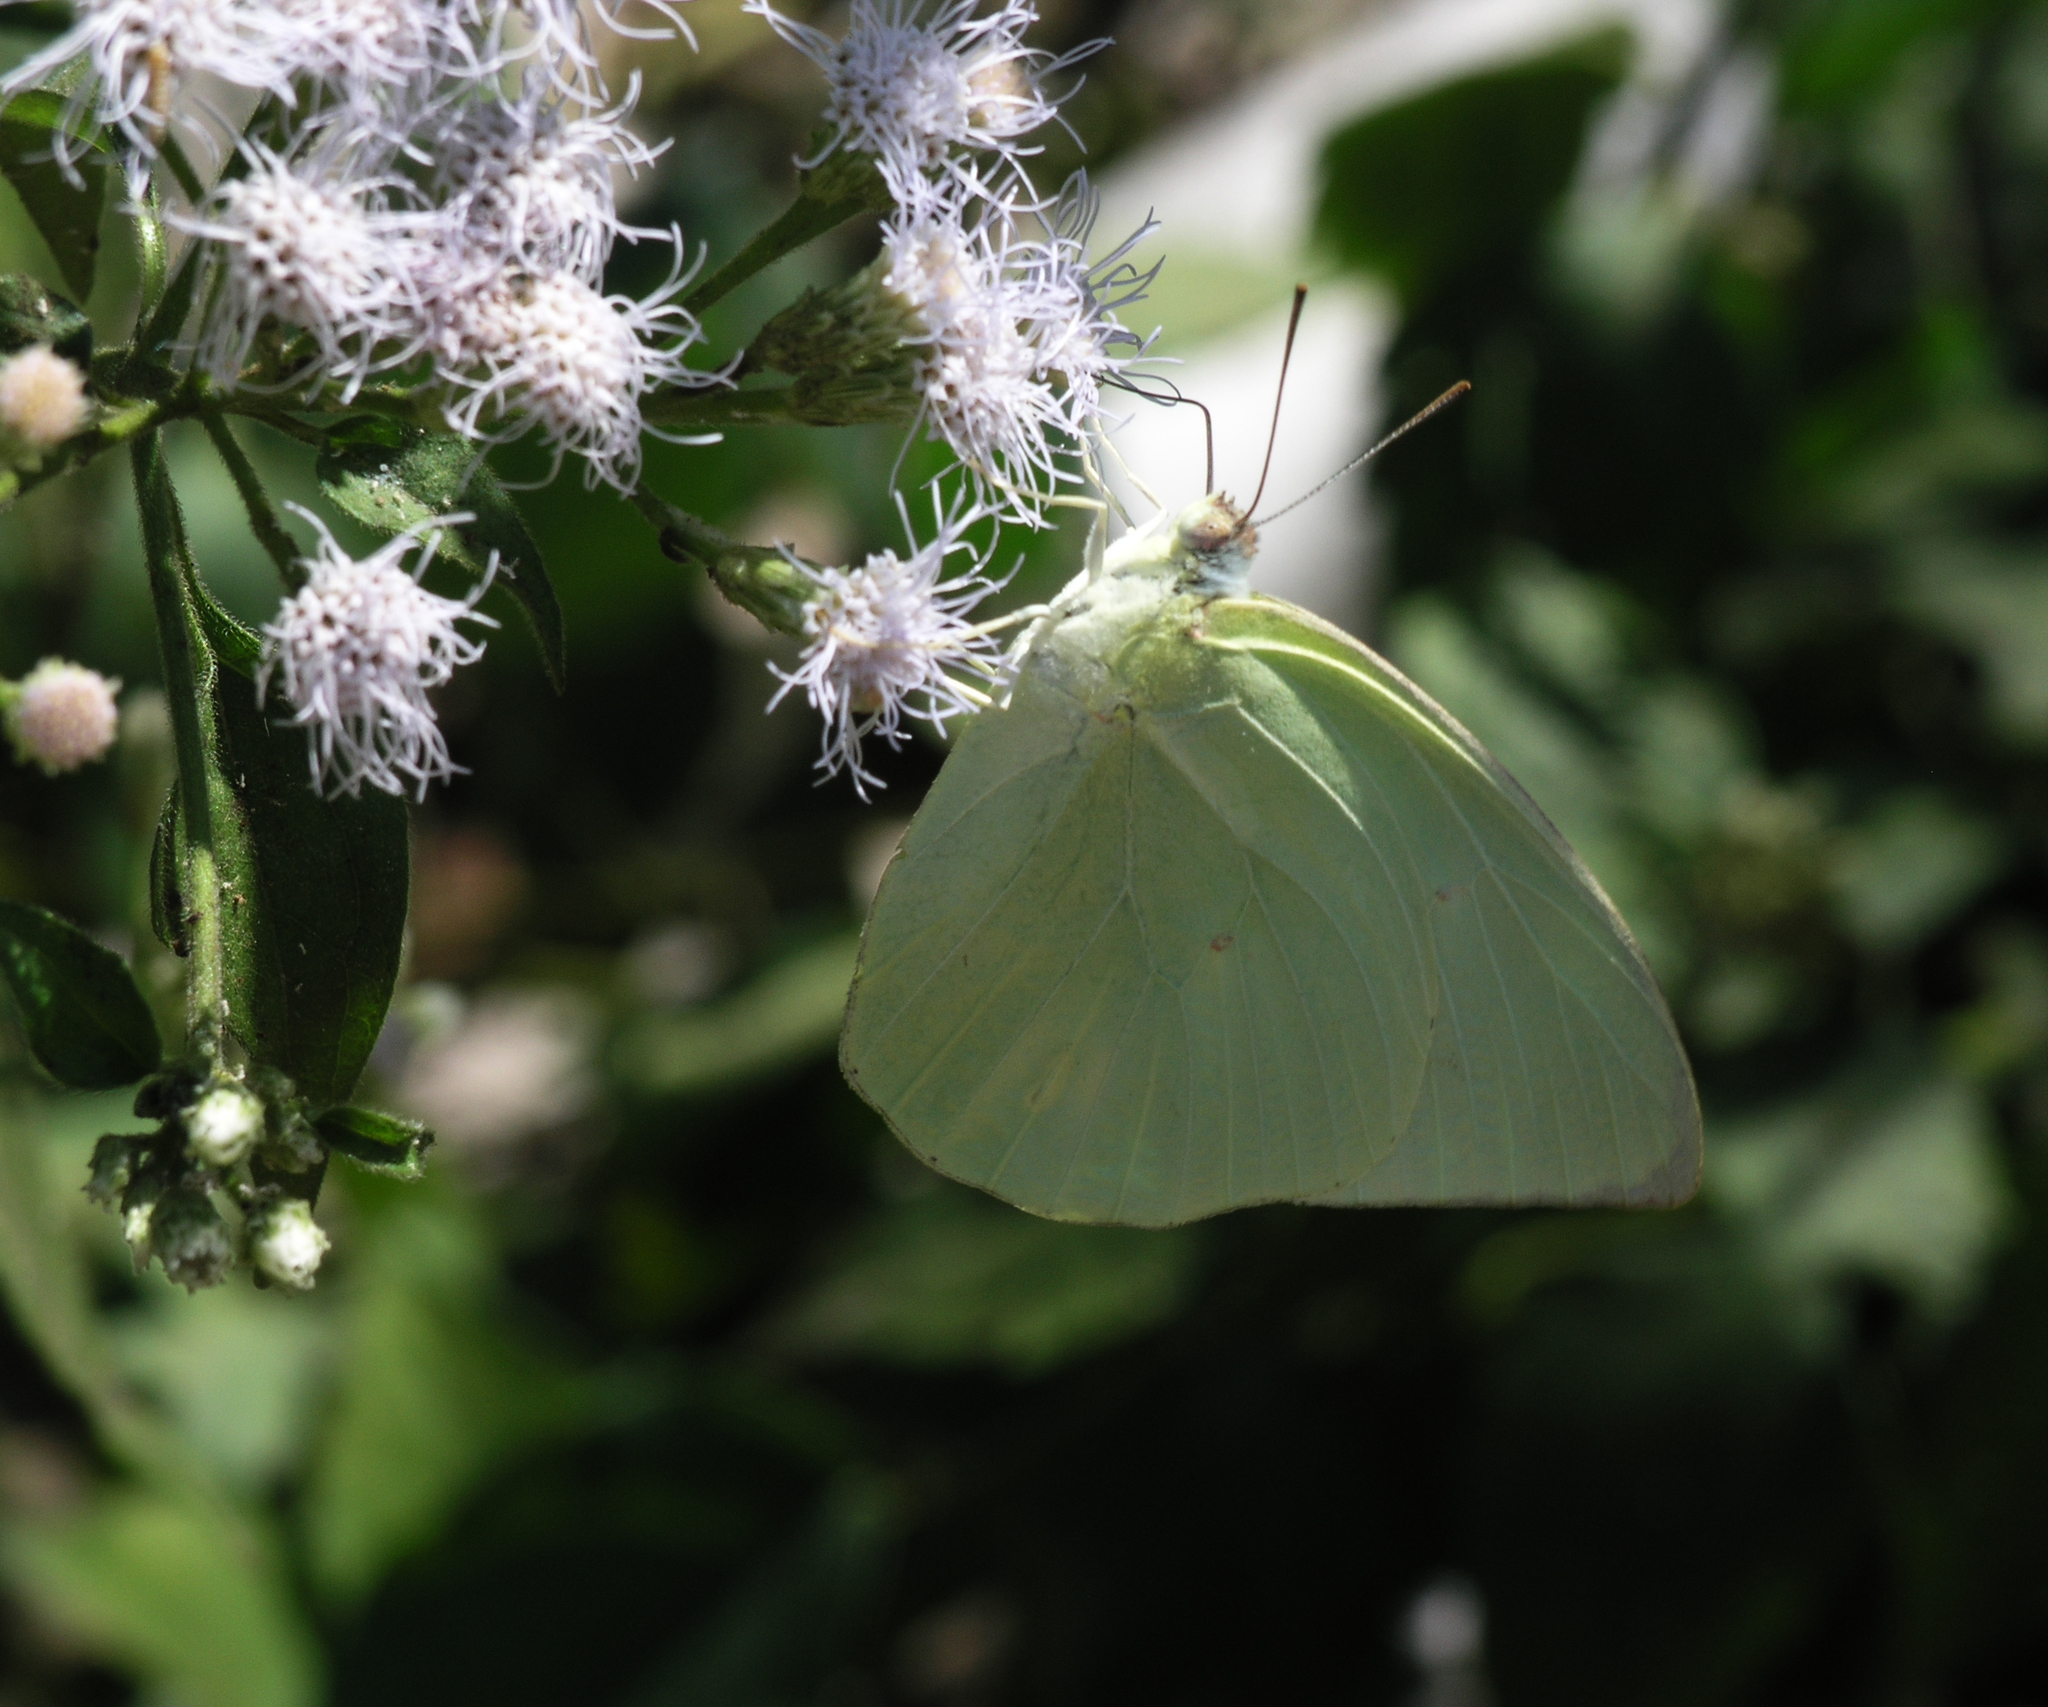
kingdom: Animalia
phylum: Arthropoda
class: Insecta
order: Lepidoptera
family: Pieridae
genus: Catopsilia
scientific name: Catopsilia pomona
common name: Common emigrant
